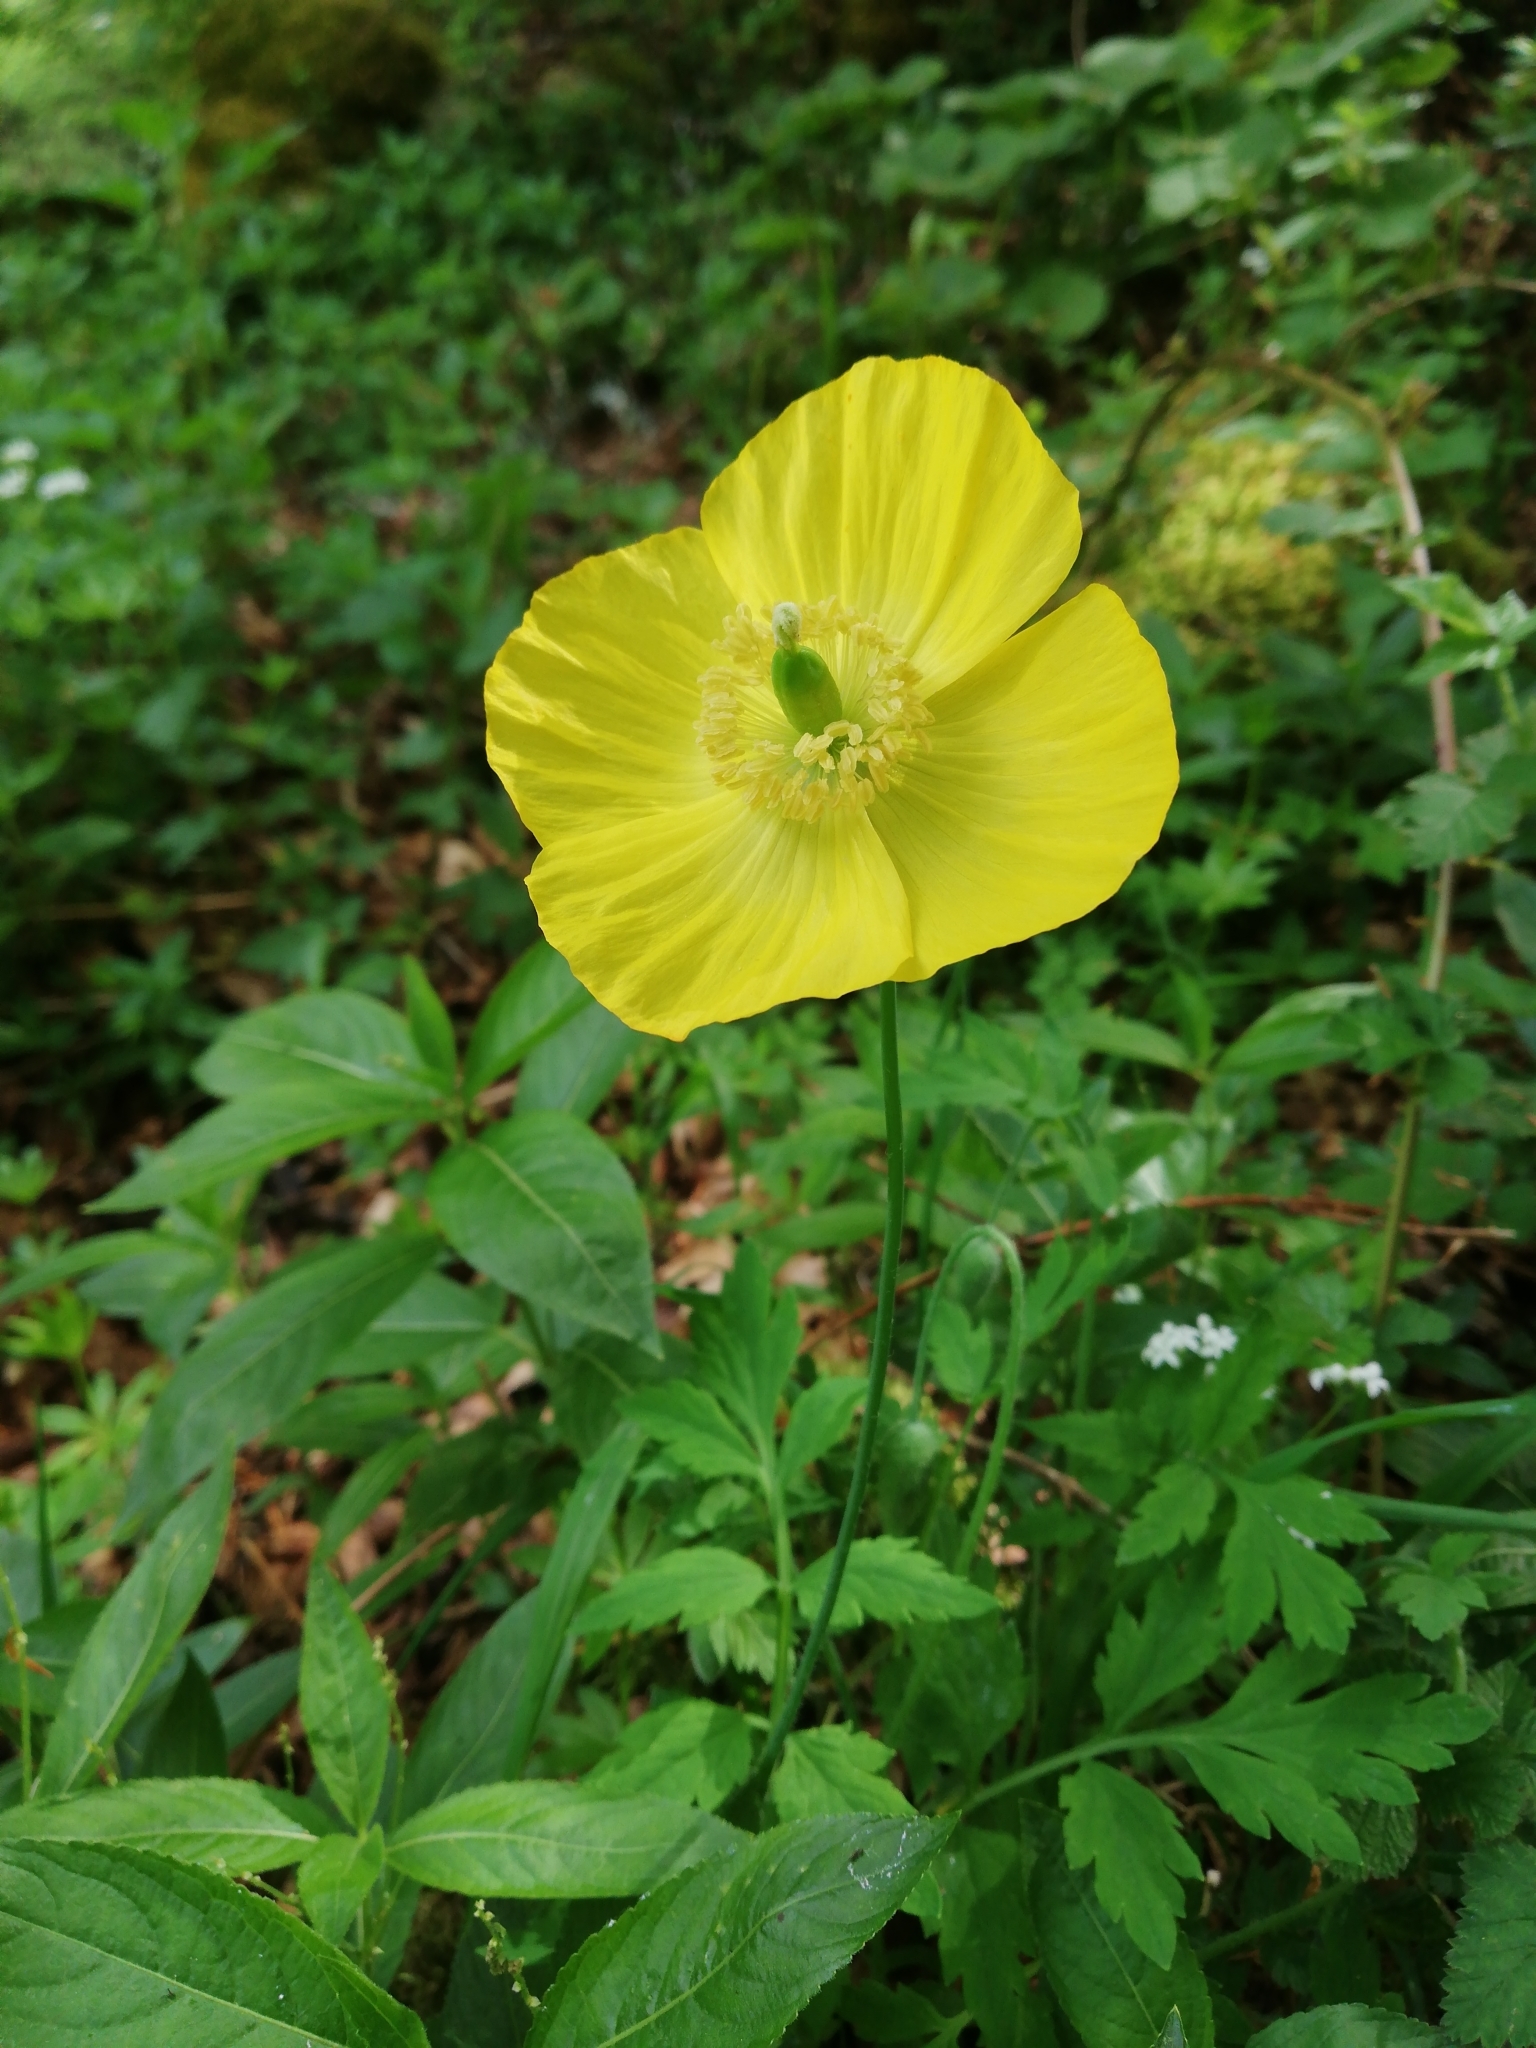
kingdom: Plantae
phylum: Tracheophyta
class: Magnoliopsida
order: Ranunculales
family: Papaveraceae
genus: Papaver
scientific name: Papaver cambricum
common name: Poppy
